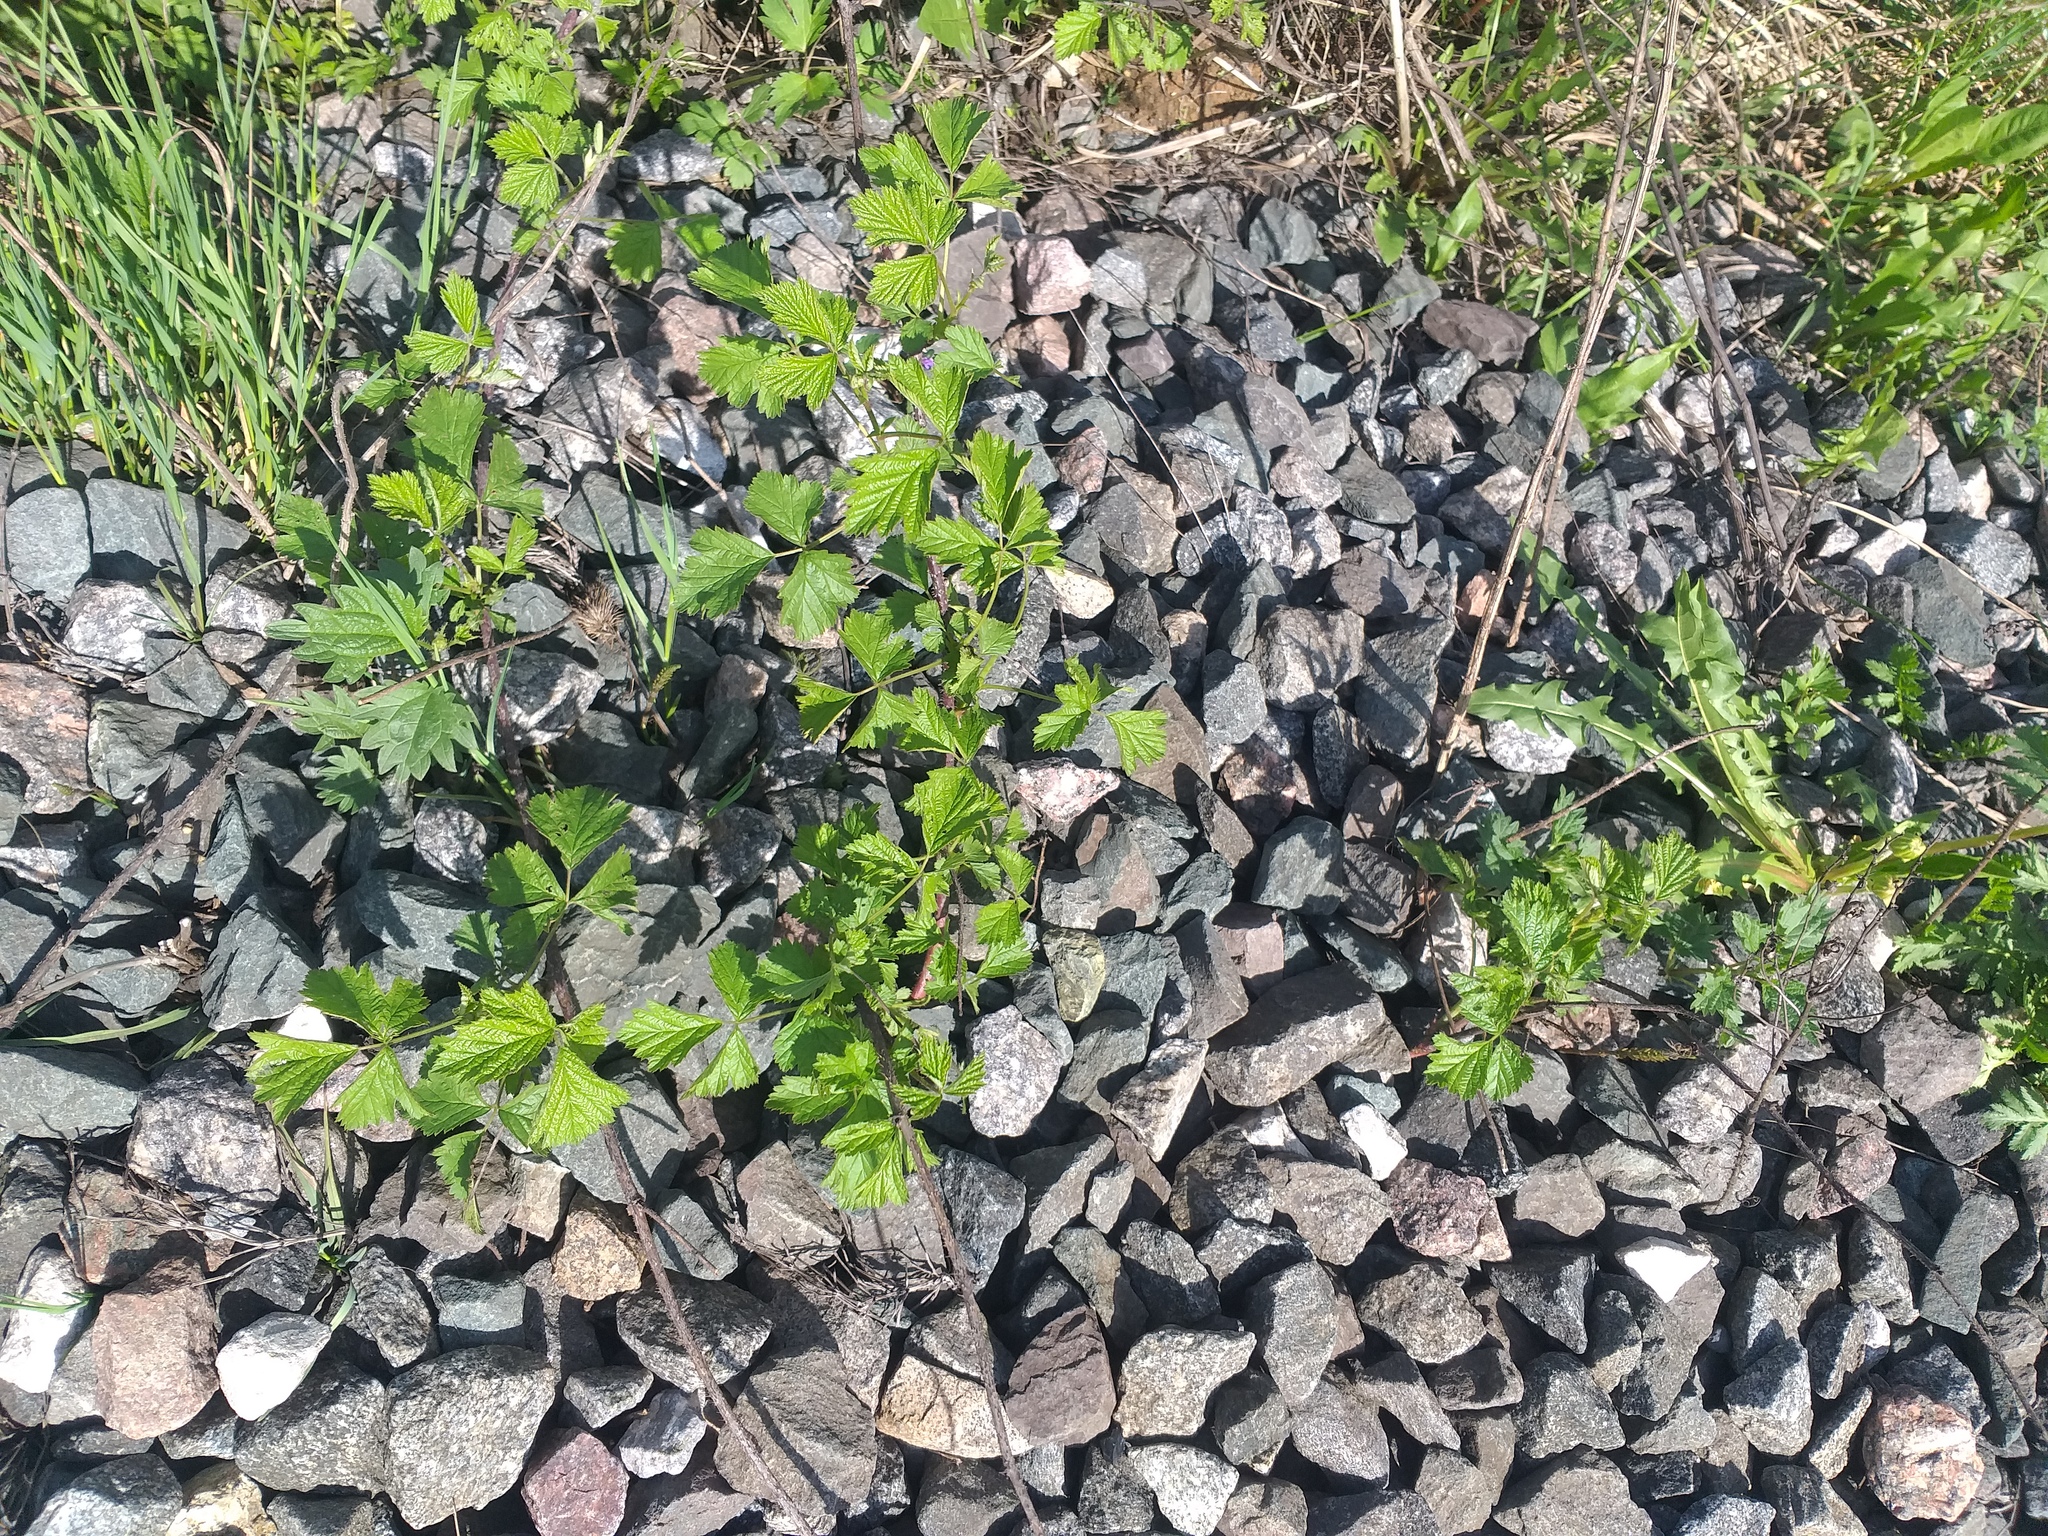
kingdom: Plantae
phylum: Tracheophyta
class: Magnoliopsida
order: Rosales
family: Rosaceae
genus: Rubus
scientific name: Rubus caesius
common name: Dewberry
